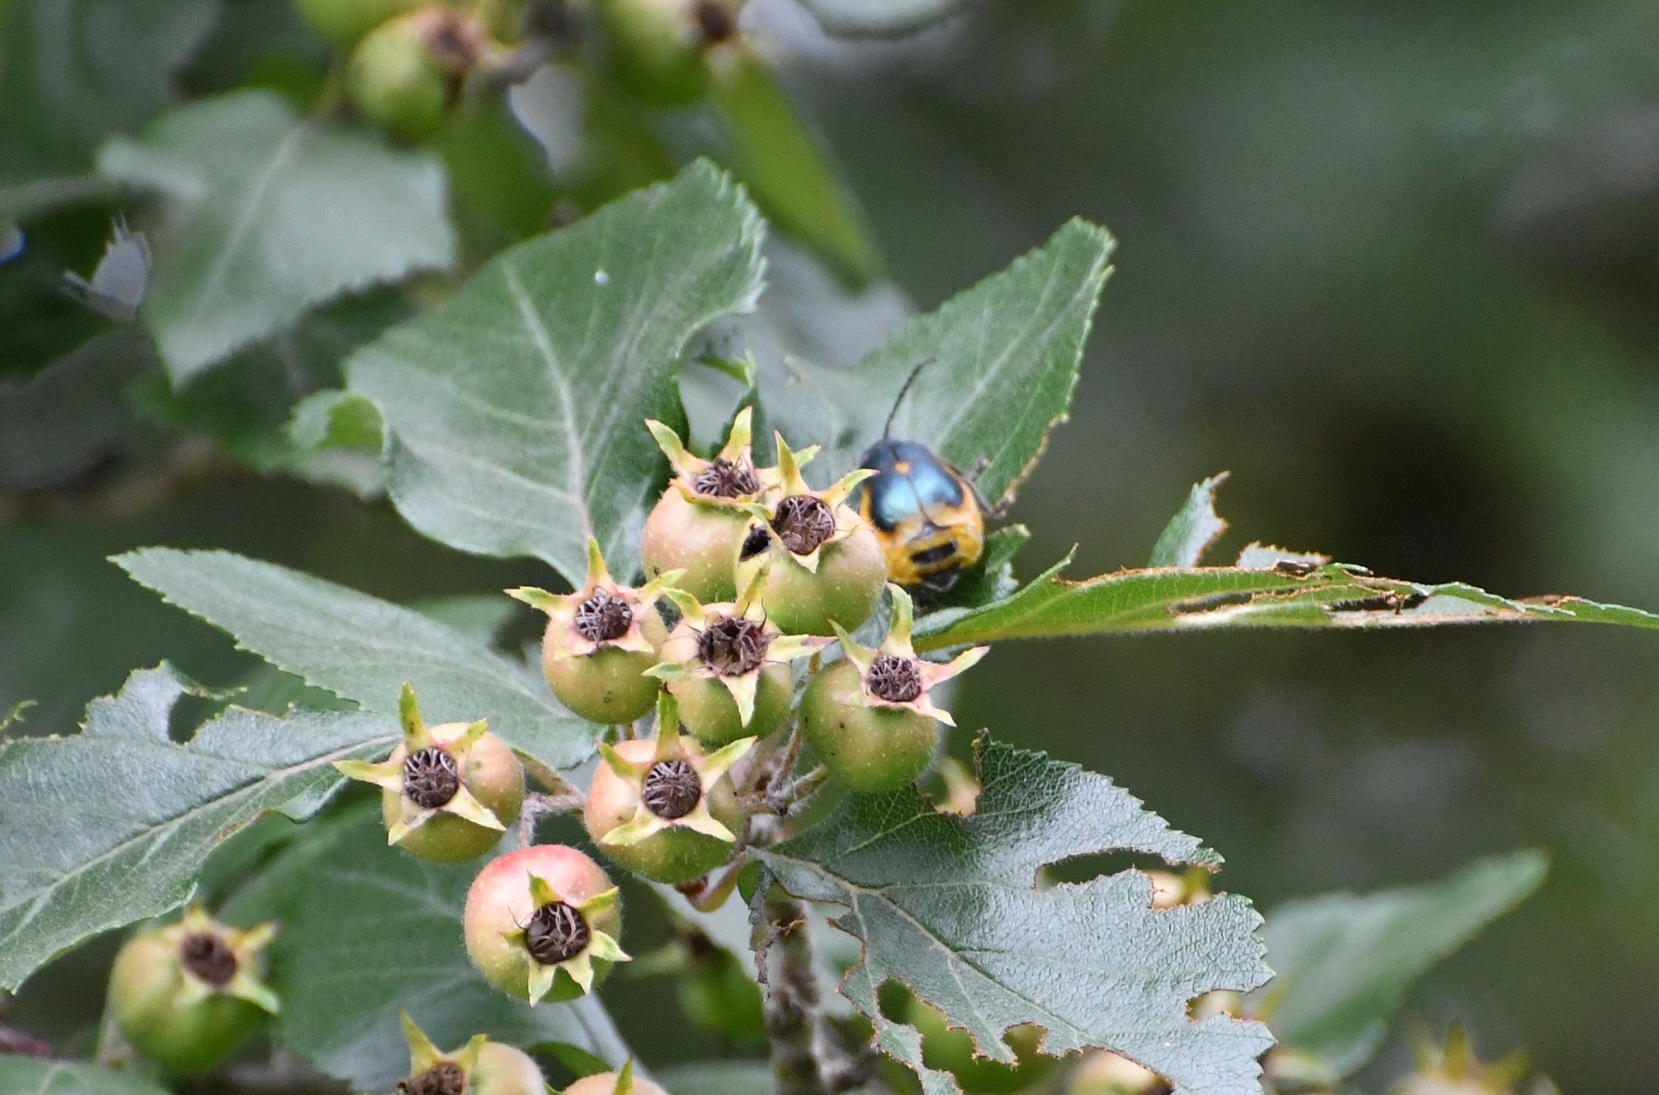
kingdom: Animalia
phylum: Arthropoda
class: Insecta
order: Coleoptera
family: Chrysomelidae
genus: Monocesta
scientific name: Monocesta
